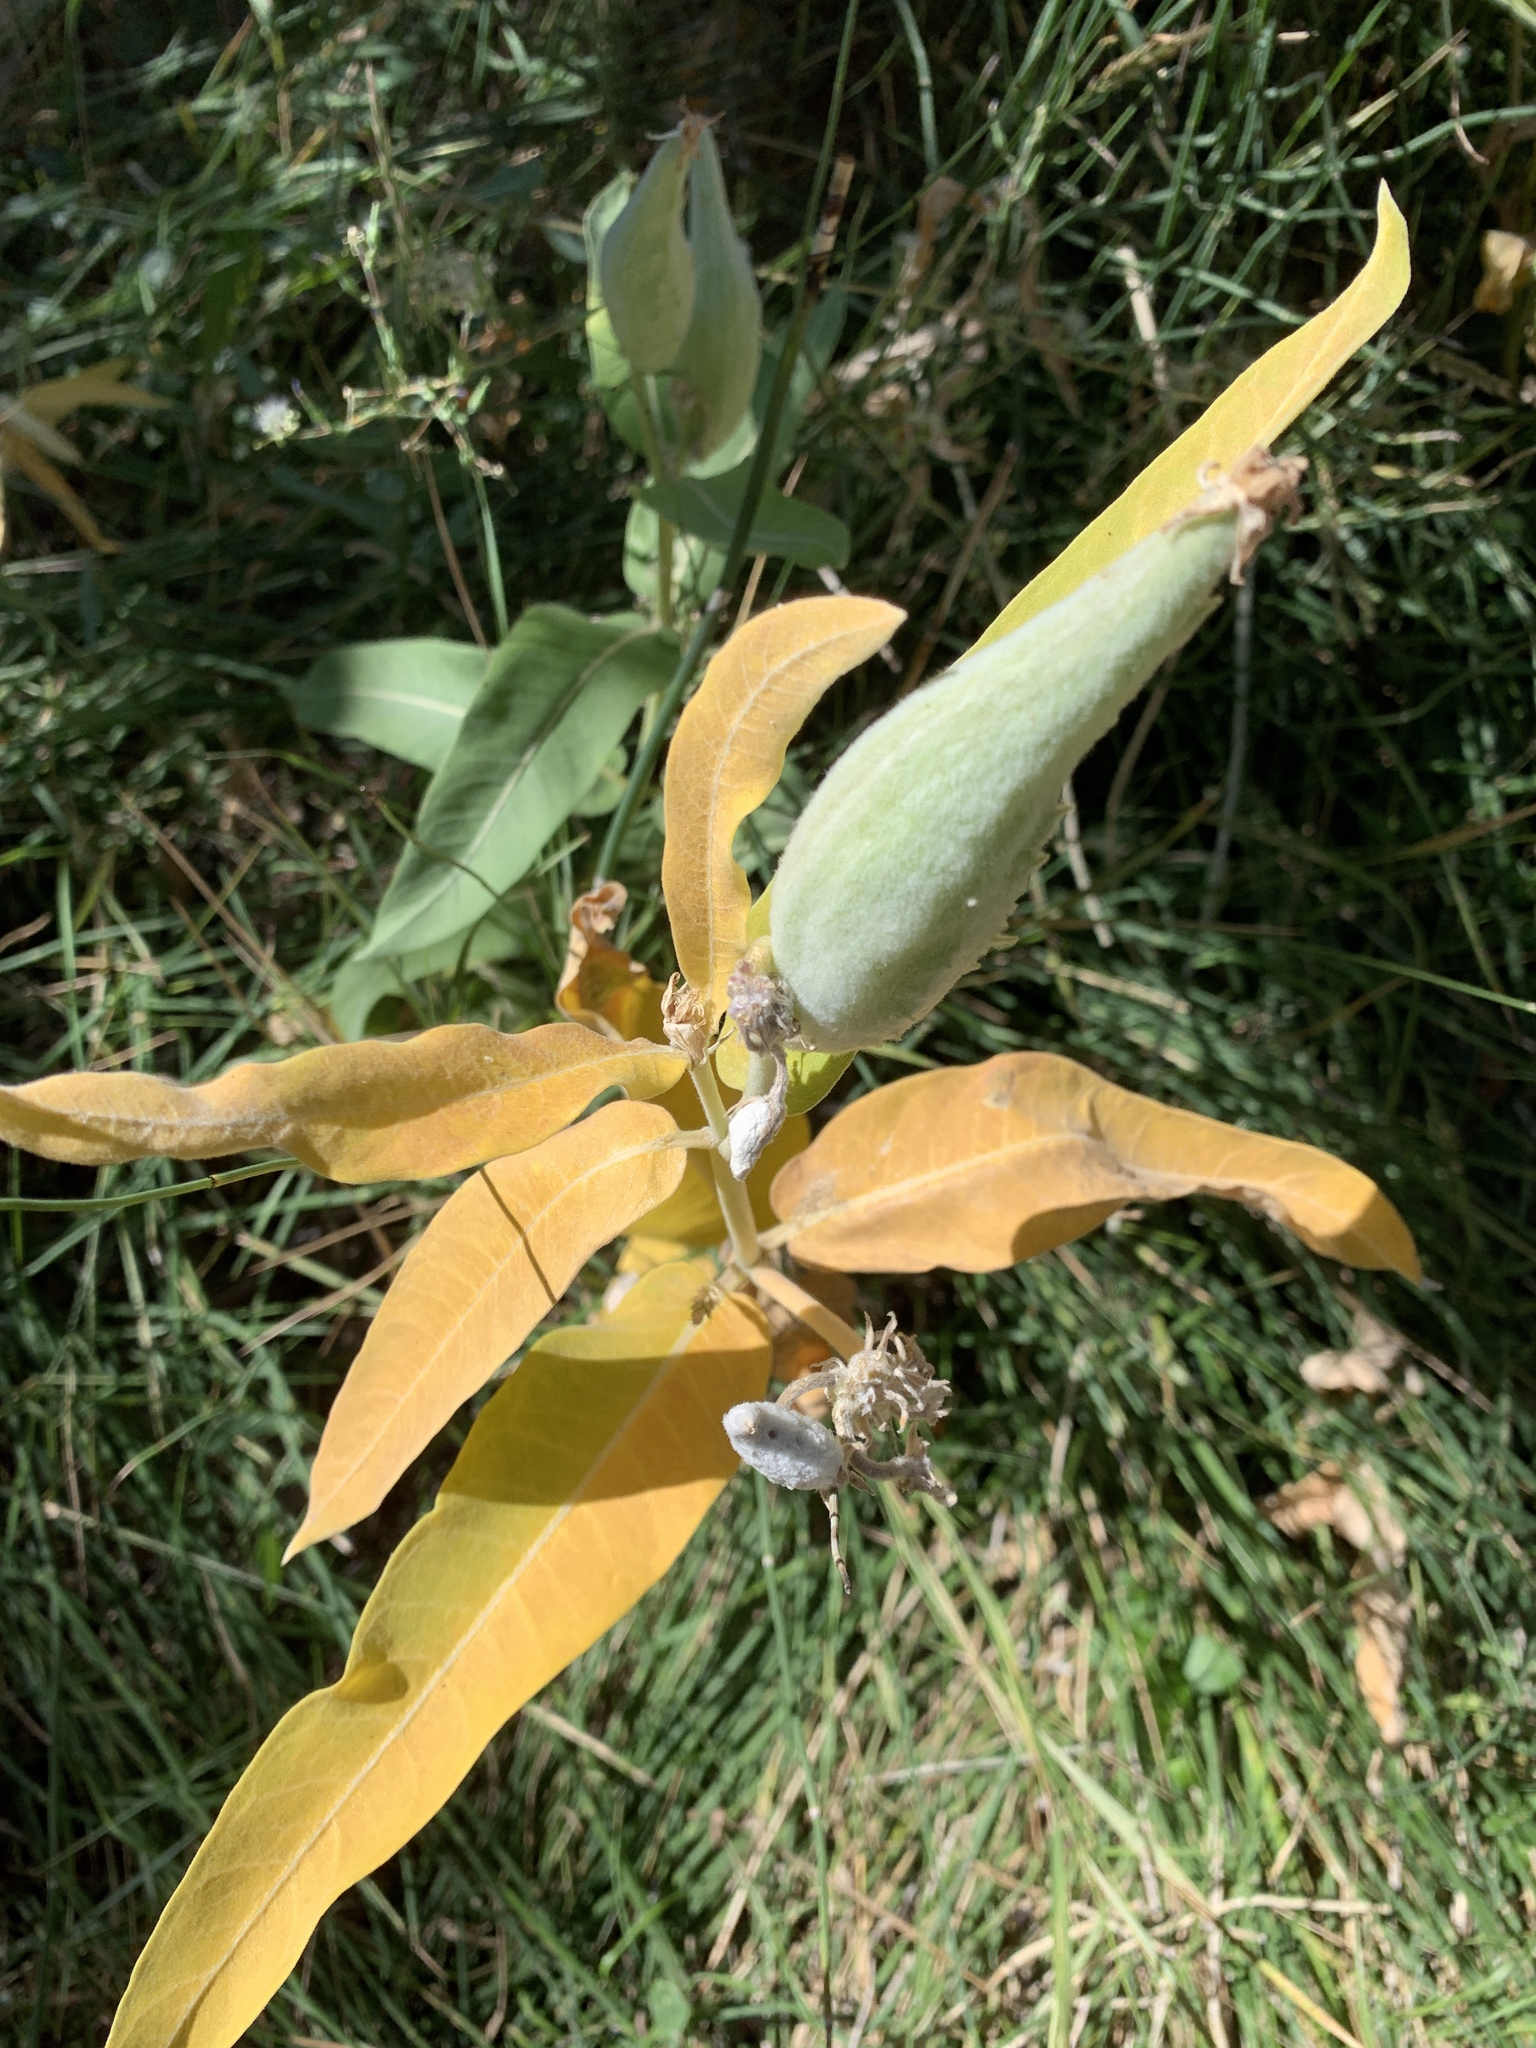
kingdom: Plantae
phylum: Tracheophyta
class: Magnoliopsida
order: Gentianales
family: Apocynaceae
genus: Asclepias
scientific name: Asclepias speciosa
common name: Showy milkweed
